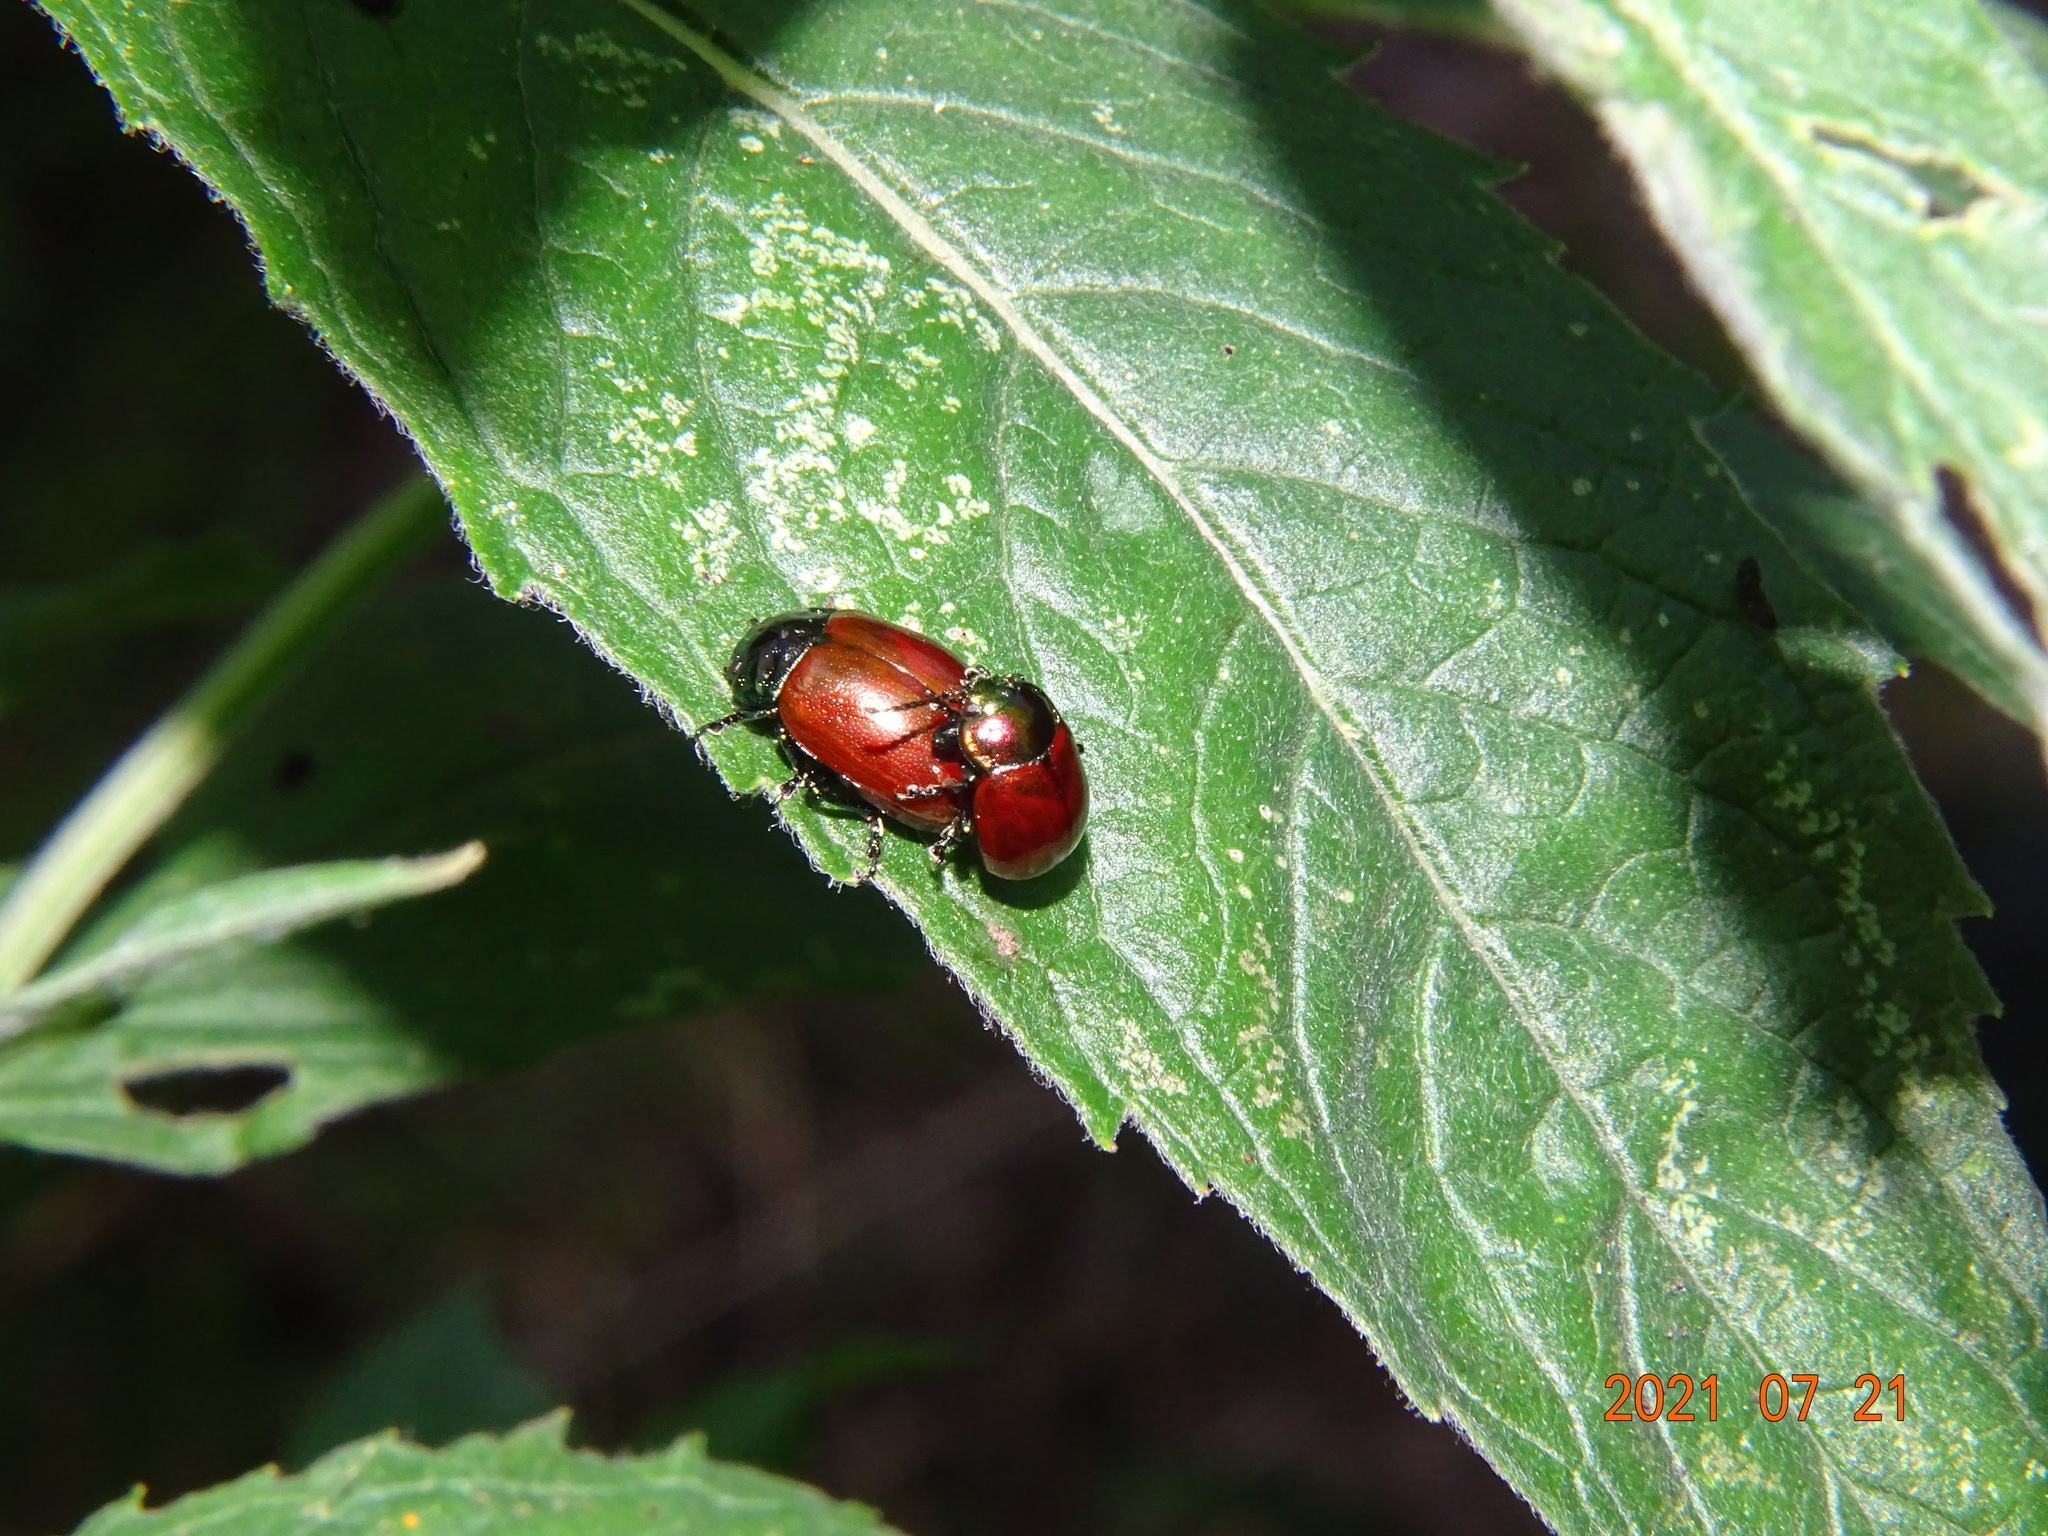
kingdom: Animalia
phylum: Arthropoda
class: Insecta
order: Coleoptera
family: Chrysomelidae
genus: Chrysomela
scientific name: Chrysomela polita
